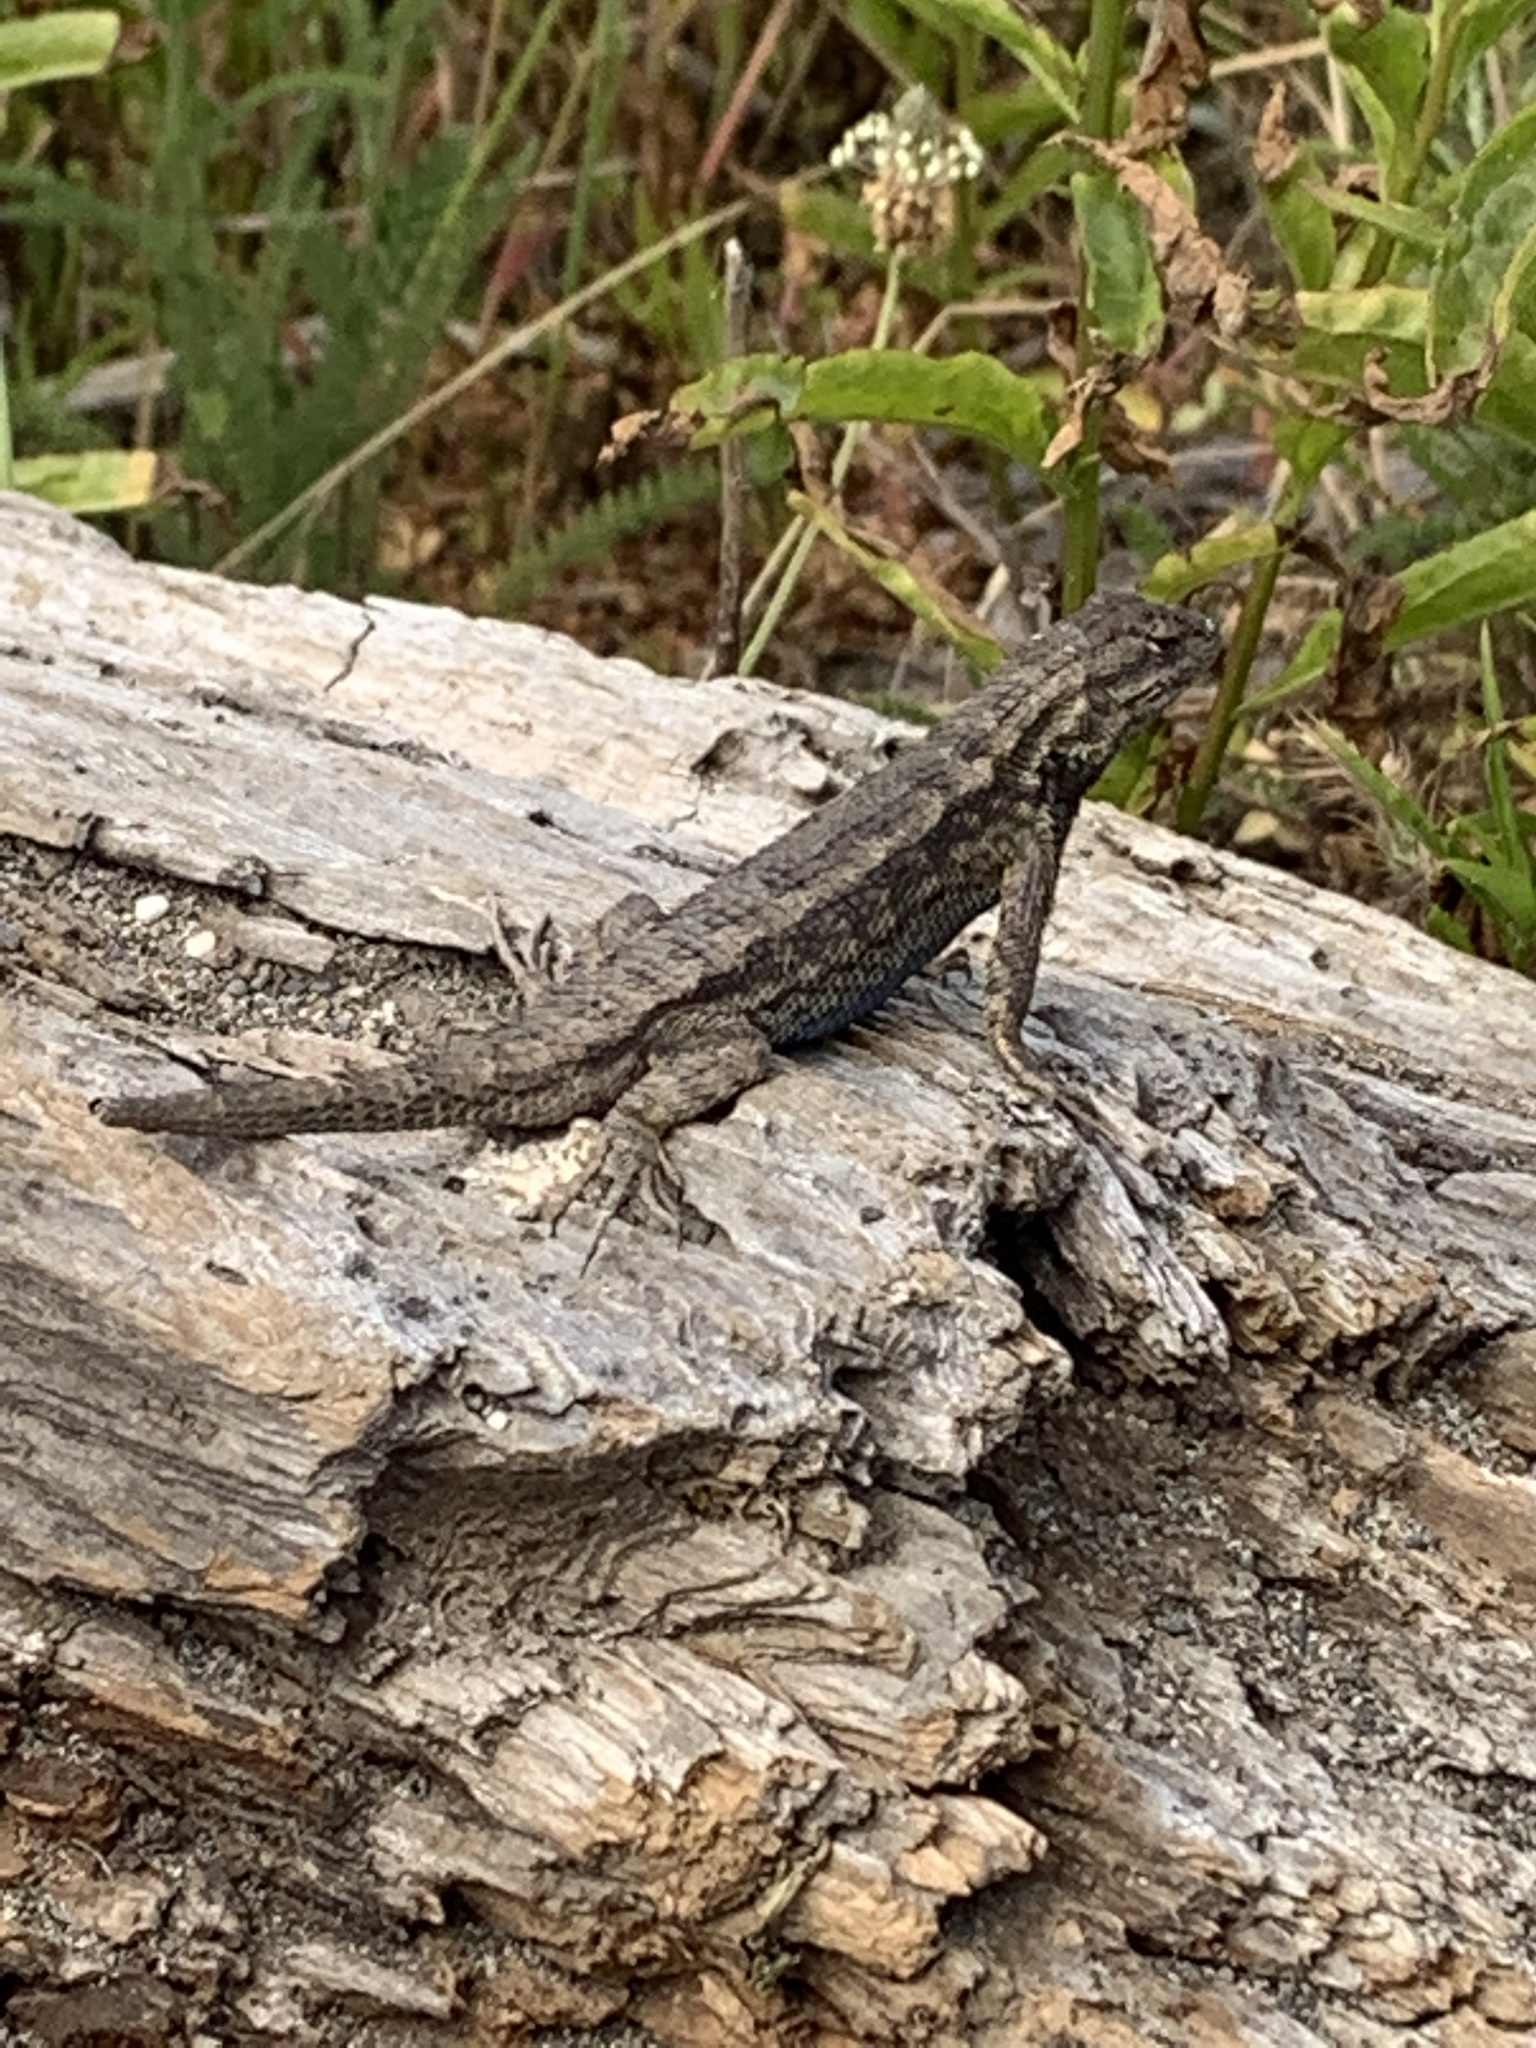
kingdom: Animalia
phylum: Chordata
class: Squamata
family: Phrynosomatidae
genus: Sceloporus
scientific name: Sceloporus occidentalis
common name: Western fence lizard
